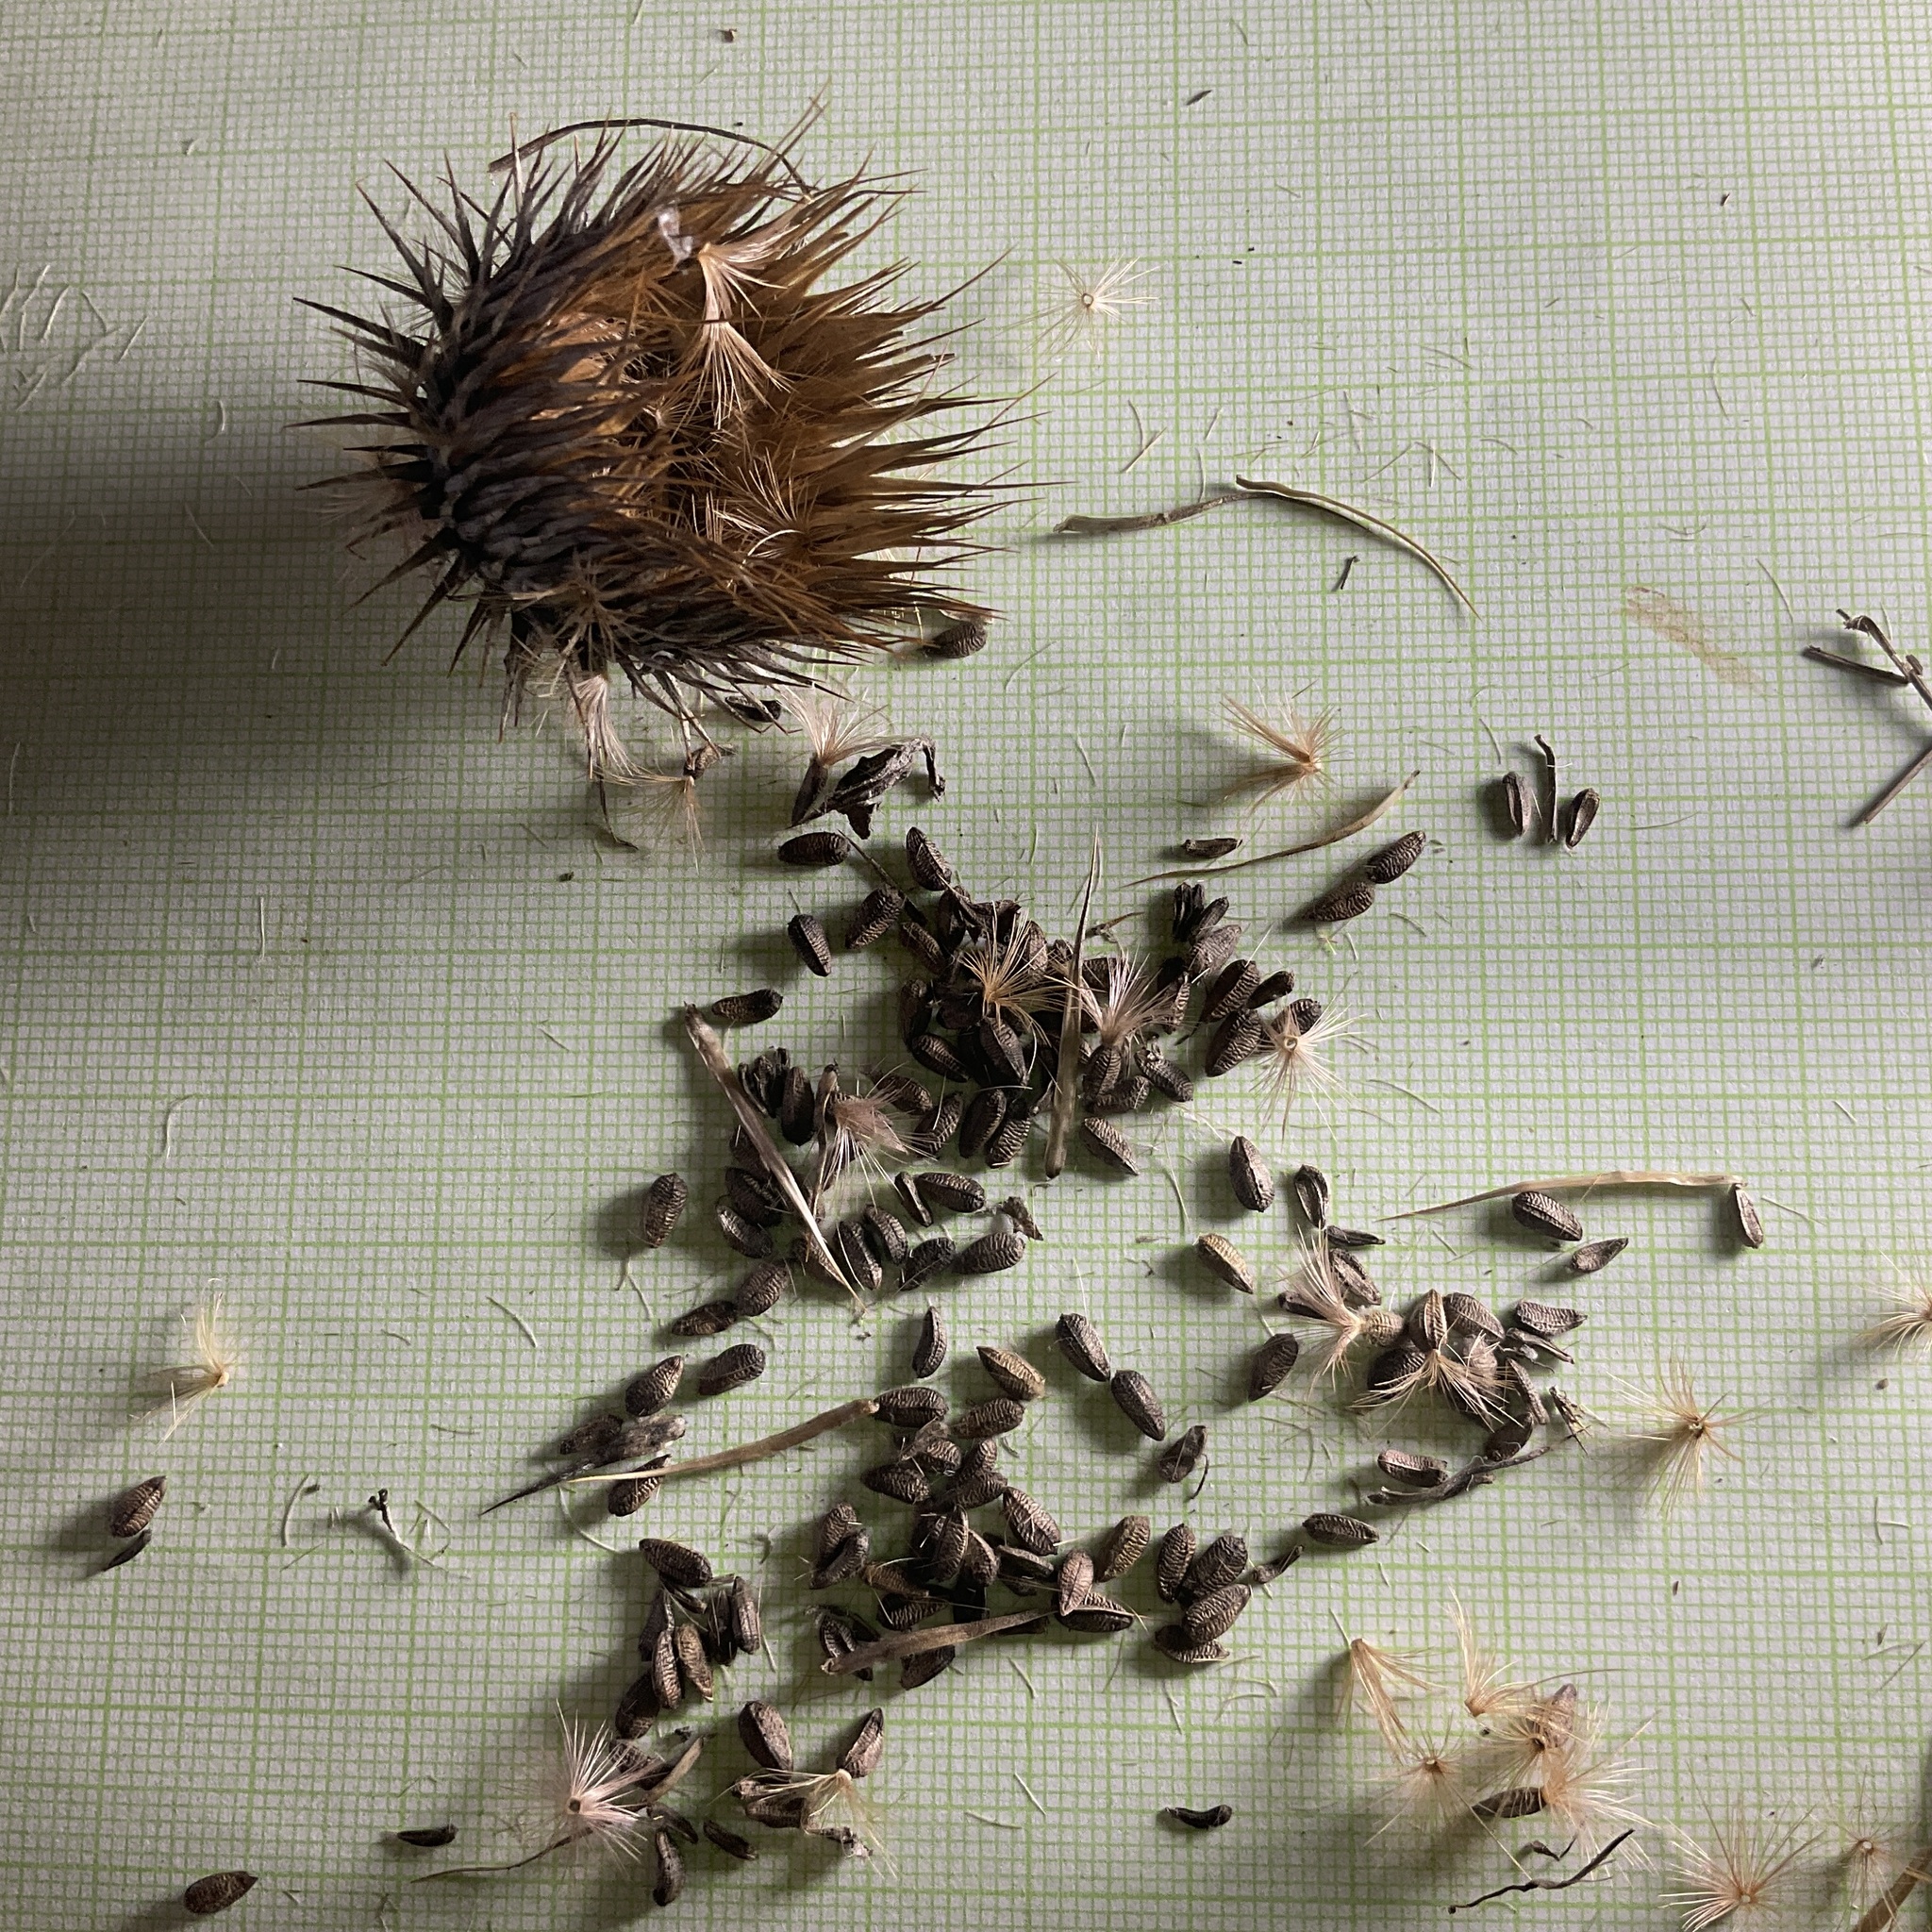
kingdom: Plantae
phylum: Tracheophyta
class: Magnoliopsida
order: Asterales
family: Asteraceae
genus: Onopordum
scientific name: Onopordum acanthium
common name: Scotch thistle
